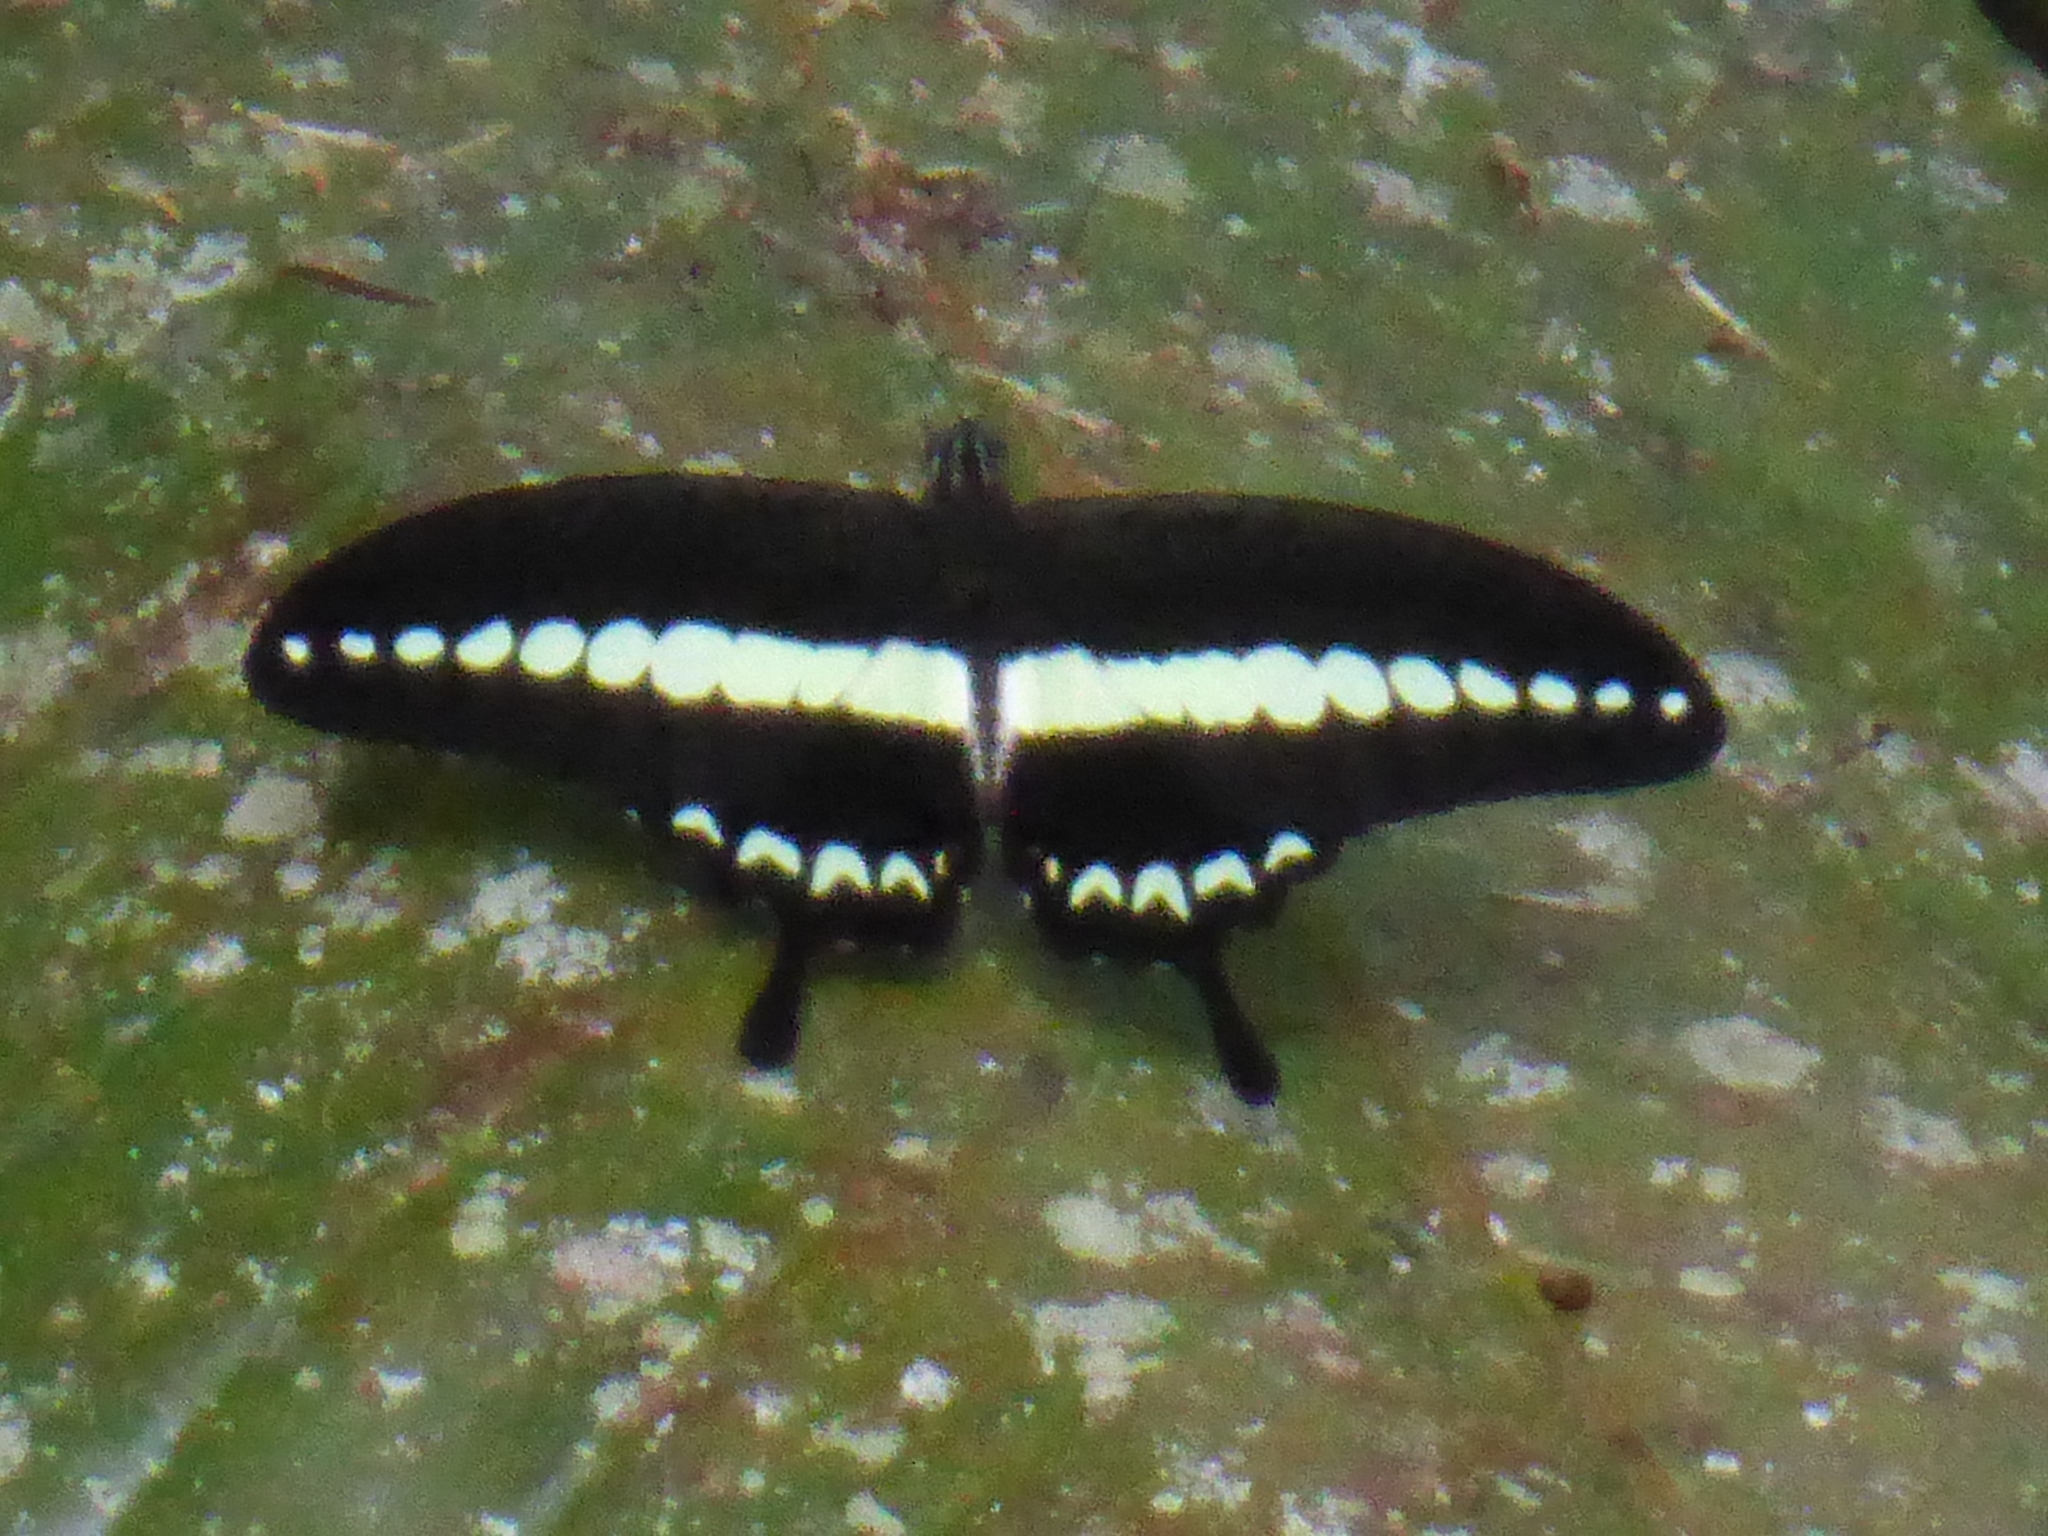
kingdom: Animalia
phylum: Arthropoda
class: Insecta
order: Lepidoptera
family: Papilionidae
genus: Papilio
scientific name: Papilio demolion
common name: Banded swallowtail
